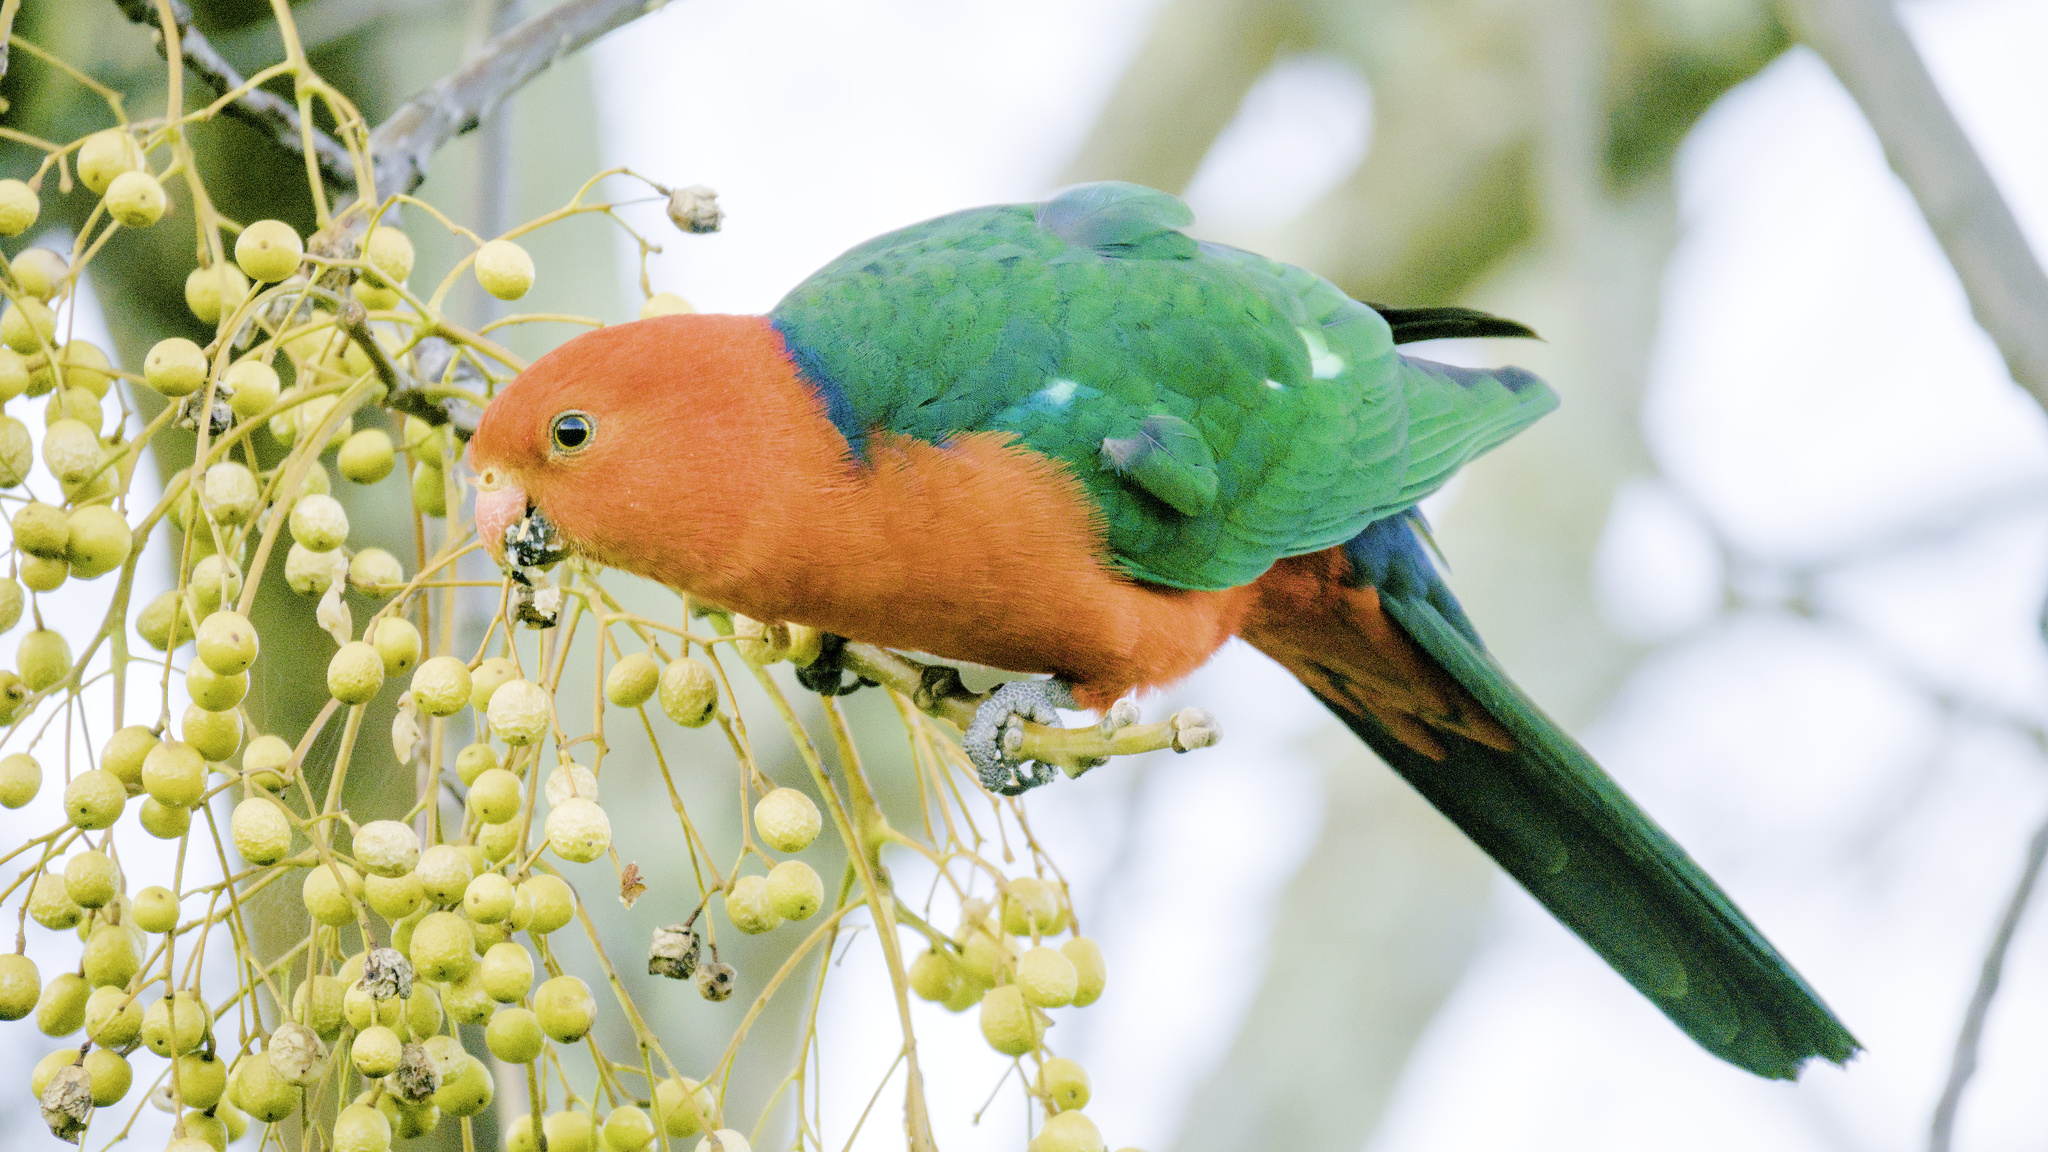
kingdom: Animalia
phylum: Chordata
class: Aves
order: Psittaciformes
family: Psittacidae
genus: Alisterus
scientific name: Alisterus scapularis
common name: Australian king parrot
